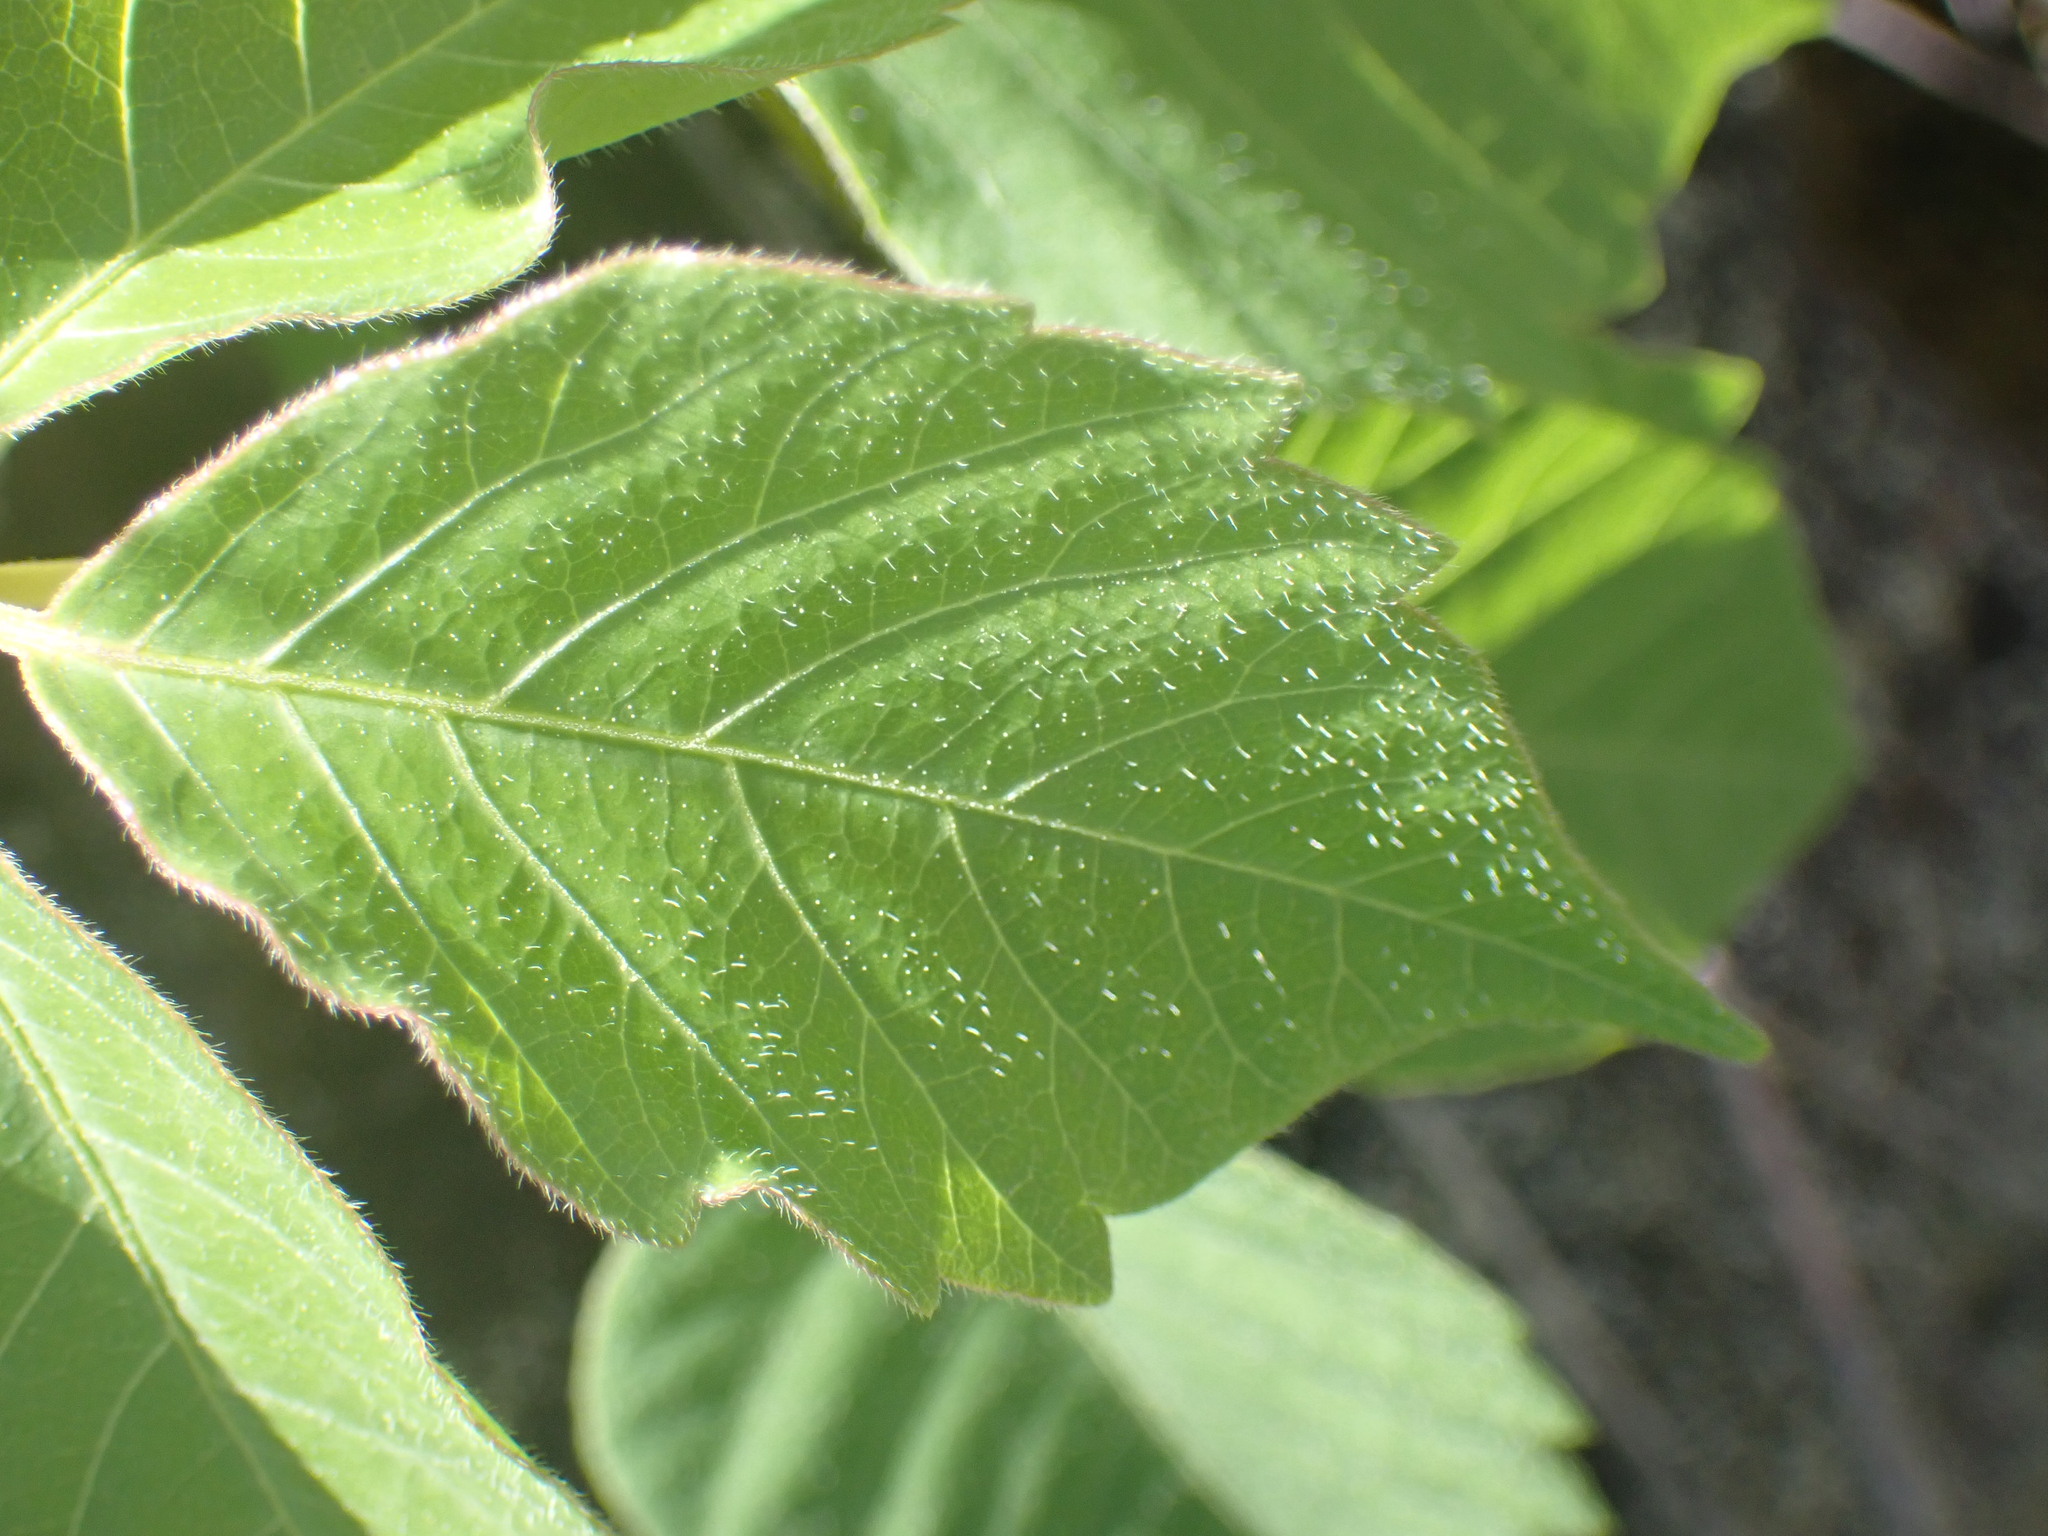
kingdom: Plantae
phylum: Tracheophyta
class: Magnoliopsida
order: Sapindales
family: Anacardiaceae
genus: Toxicodendron
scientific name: Toxicodendron rydbergii
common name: Rydberg's poison-ivy
